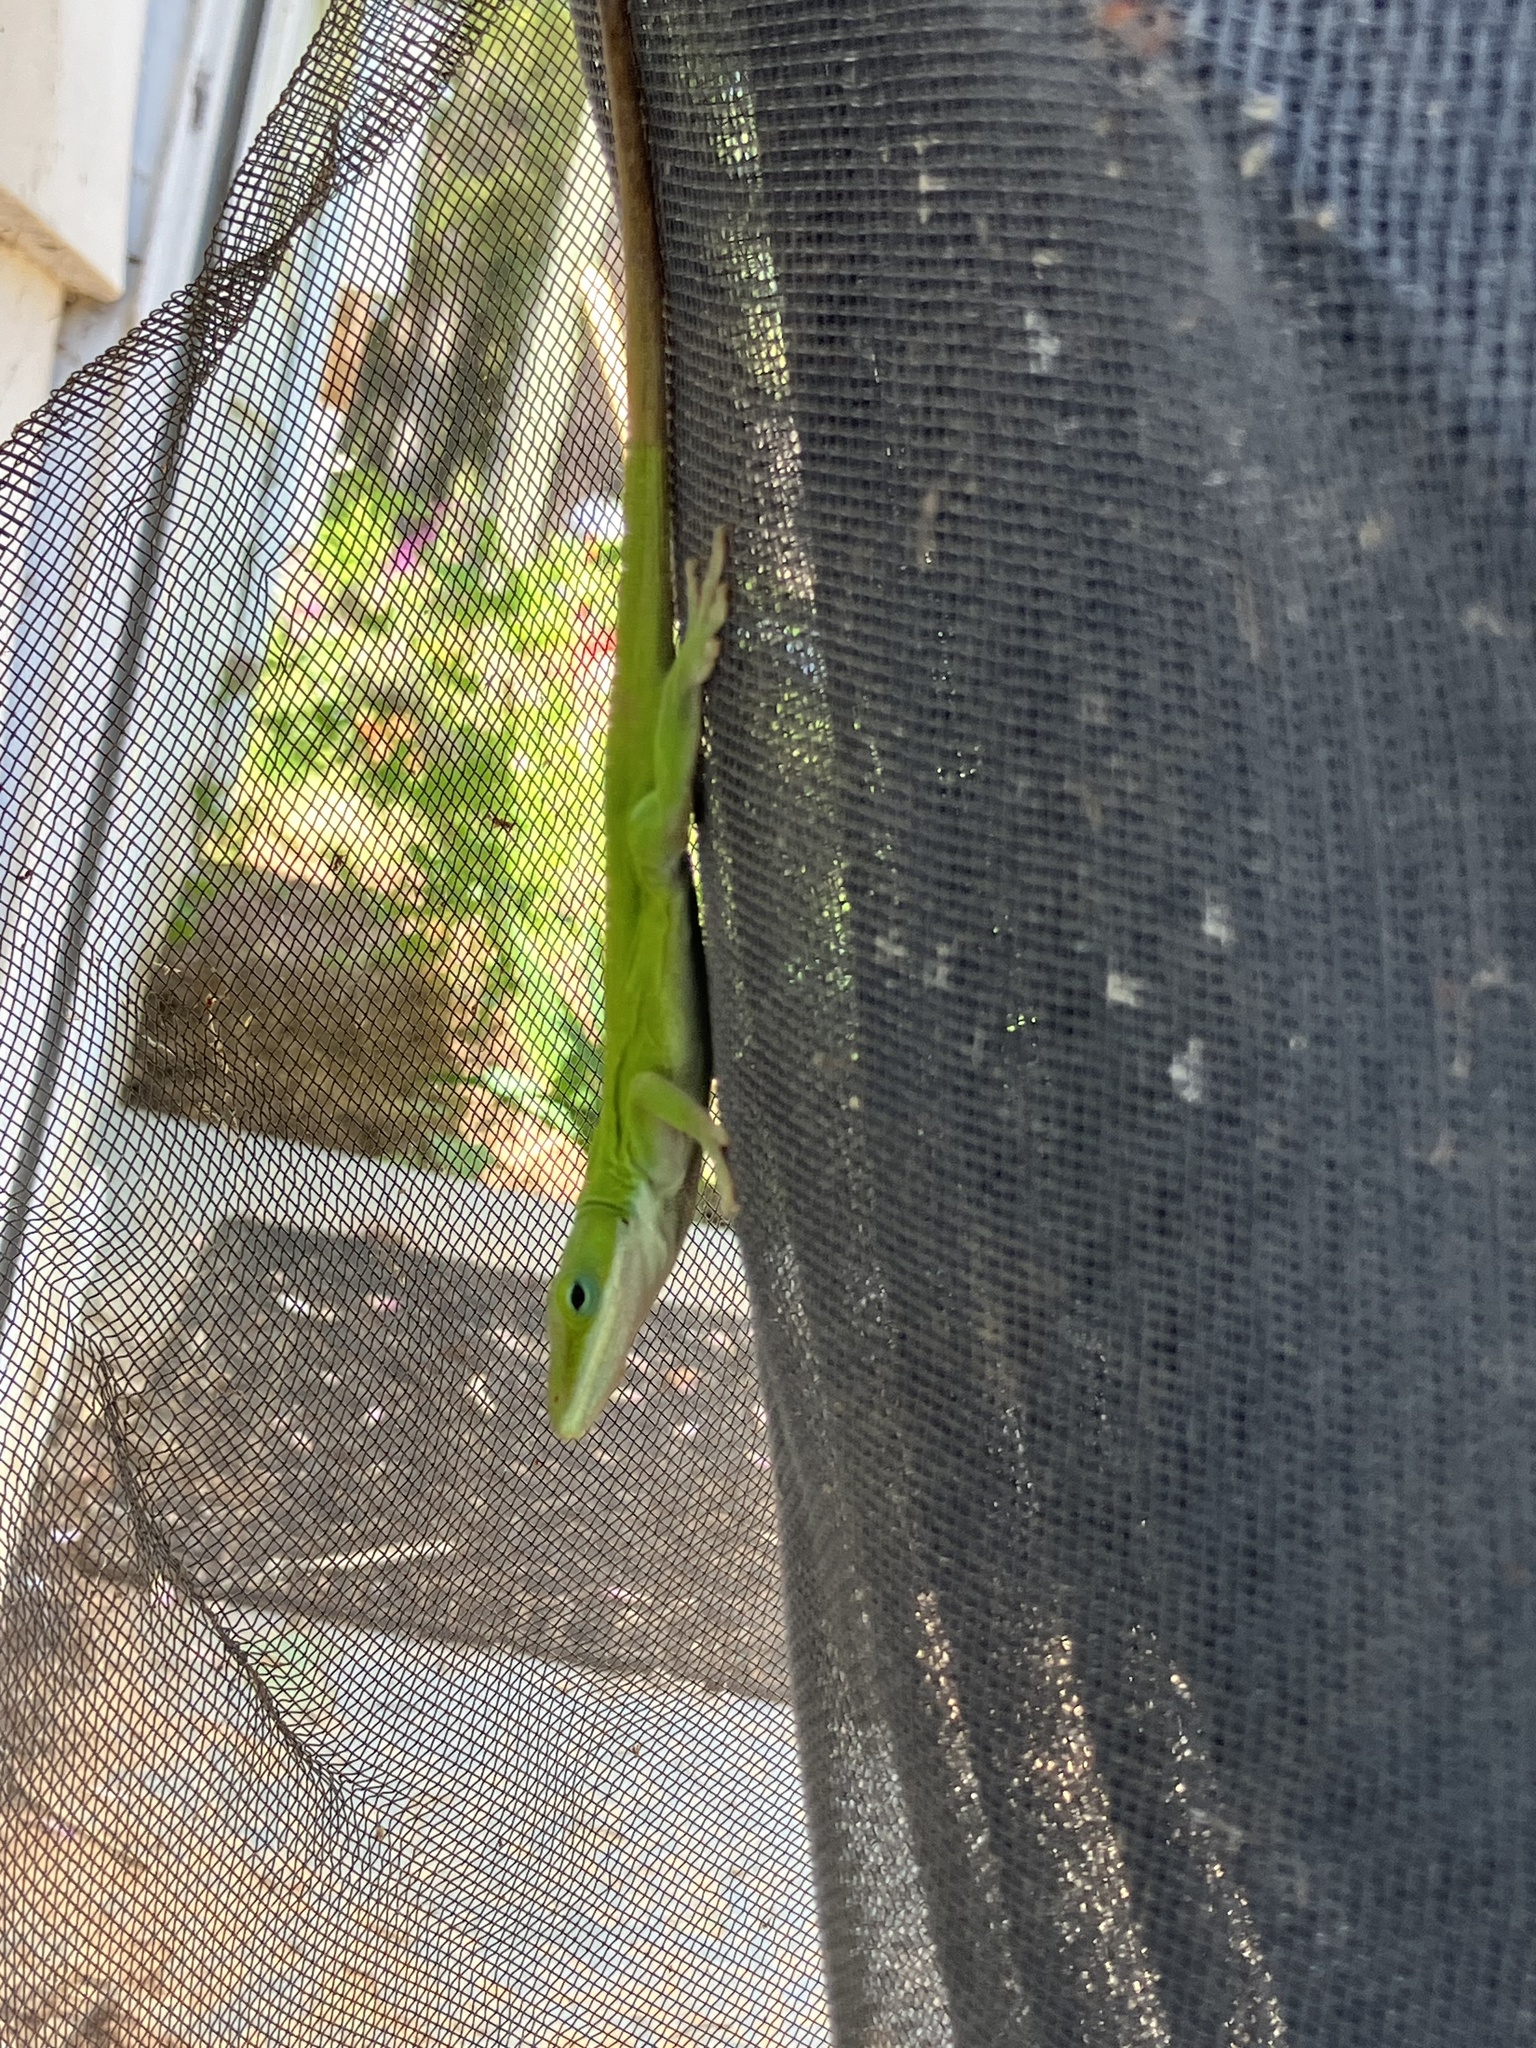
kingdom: Animalia
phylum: Chordata
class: Squamata
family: Dactyloidae
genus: Anolis
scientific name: Anolis carolinensis
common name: Green anole
